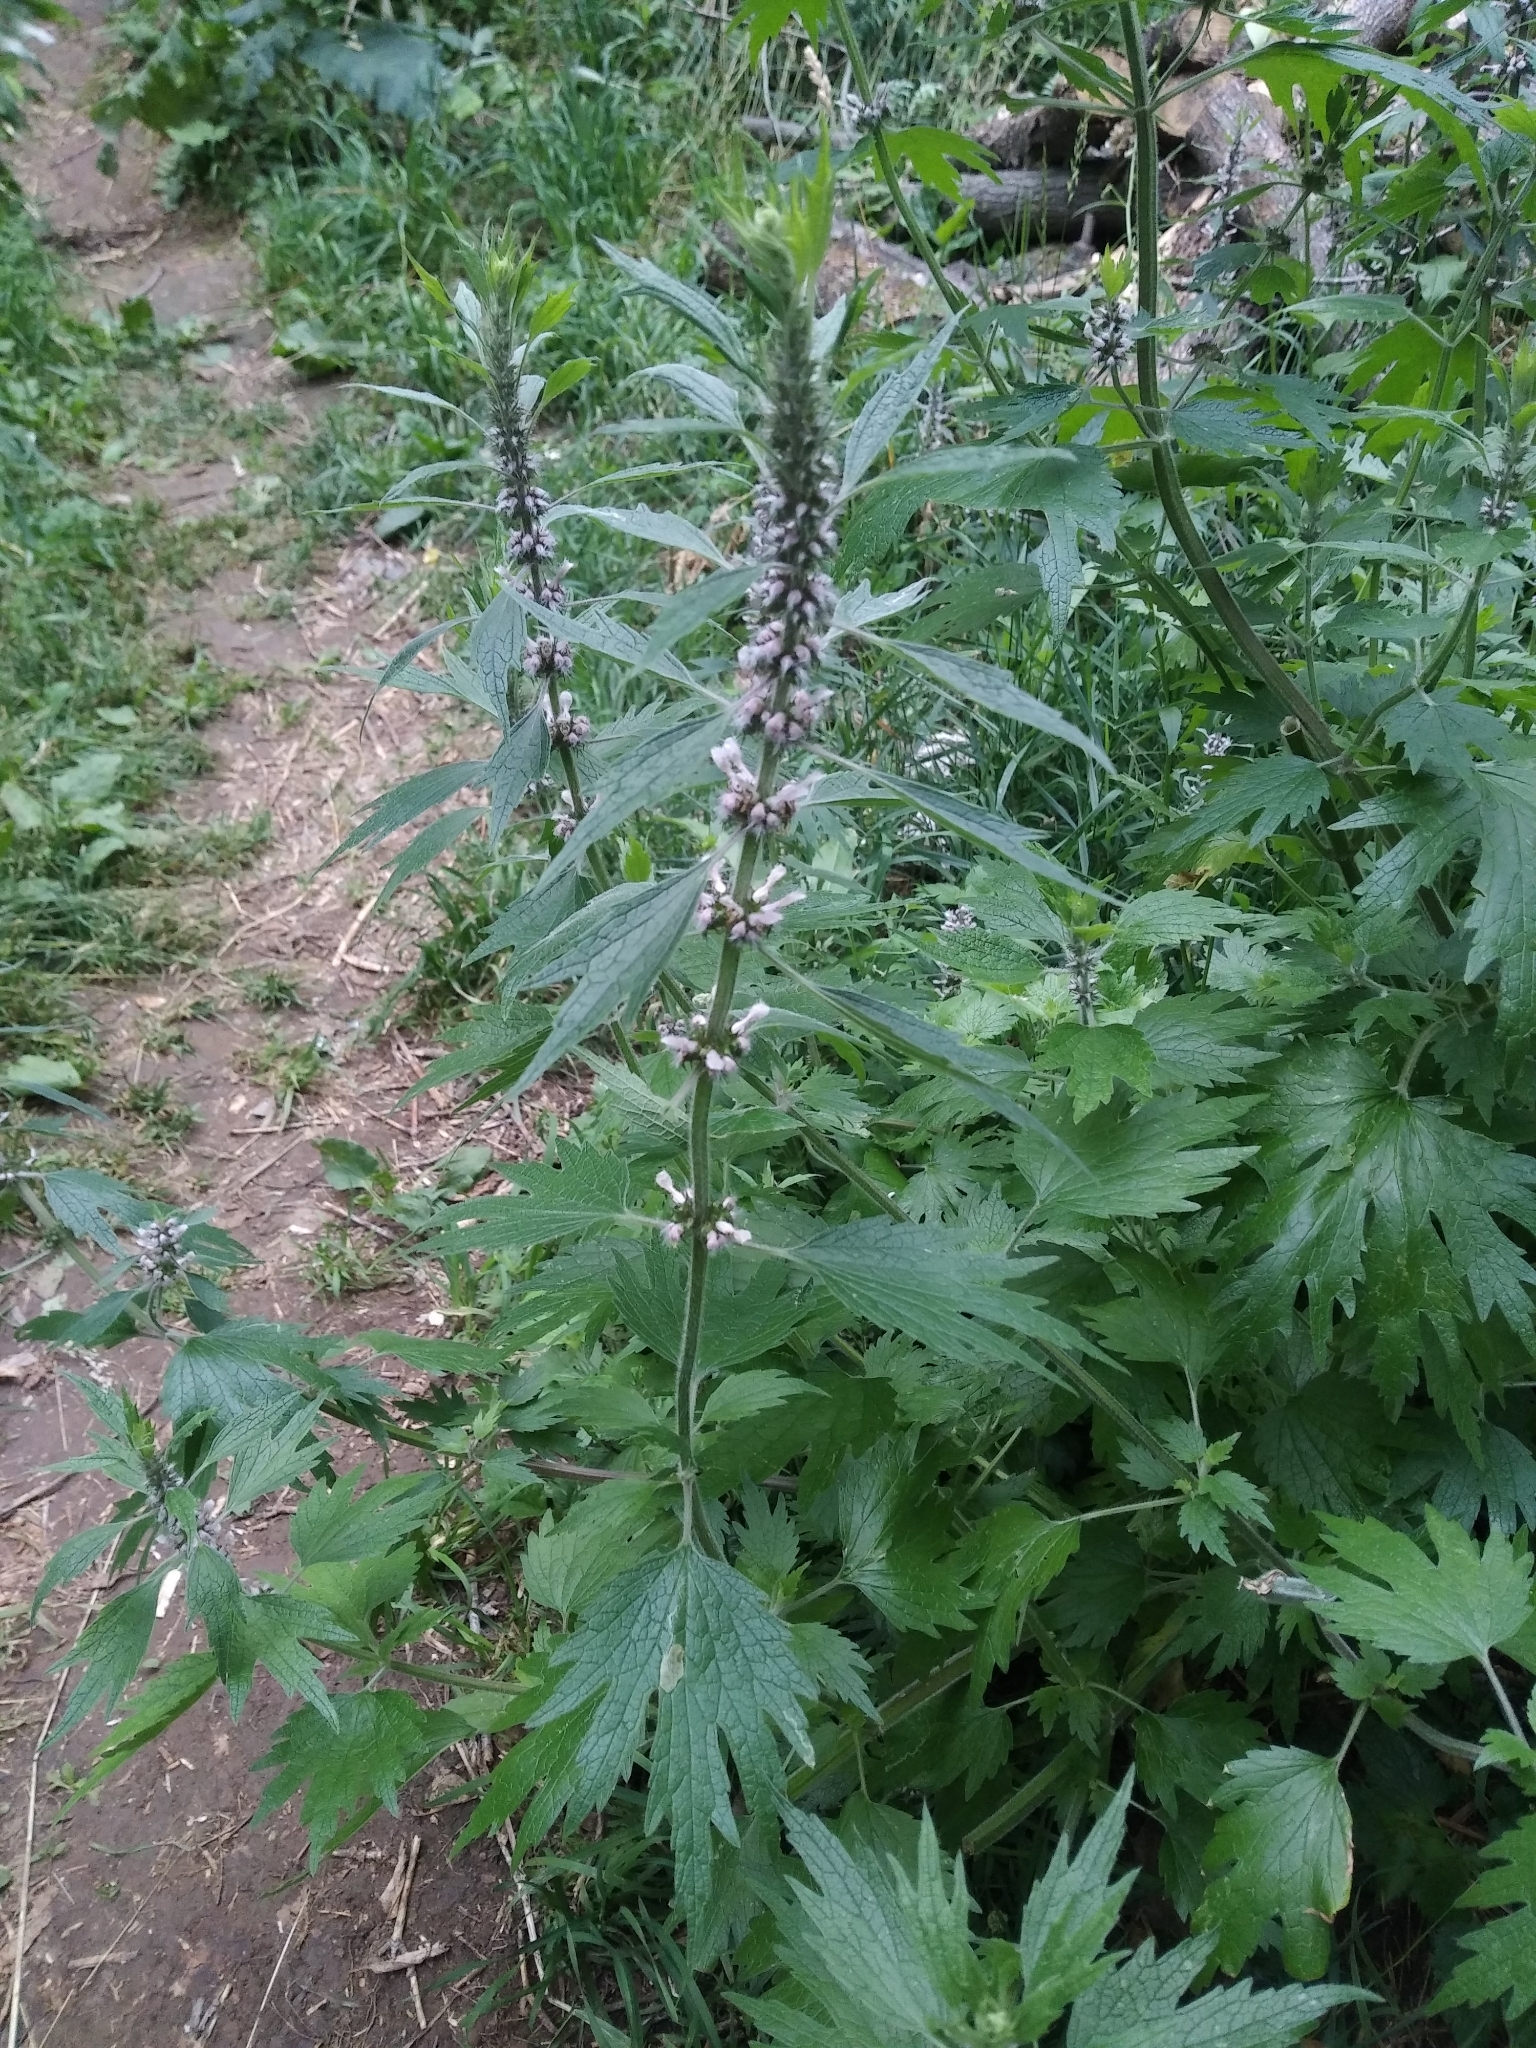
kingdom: Plantae
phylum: Tracheophyta
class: Magnoliopsida
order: Lamiales
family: Lamiaceae
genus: Leonurus
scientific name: Leonurus quinquelobatus
